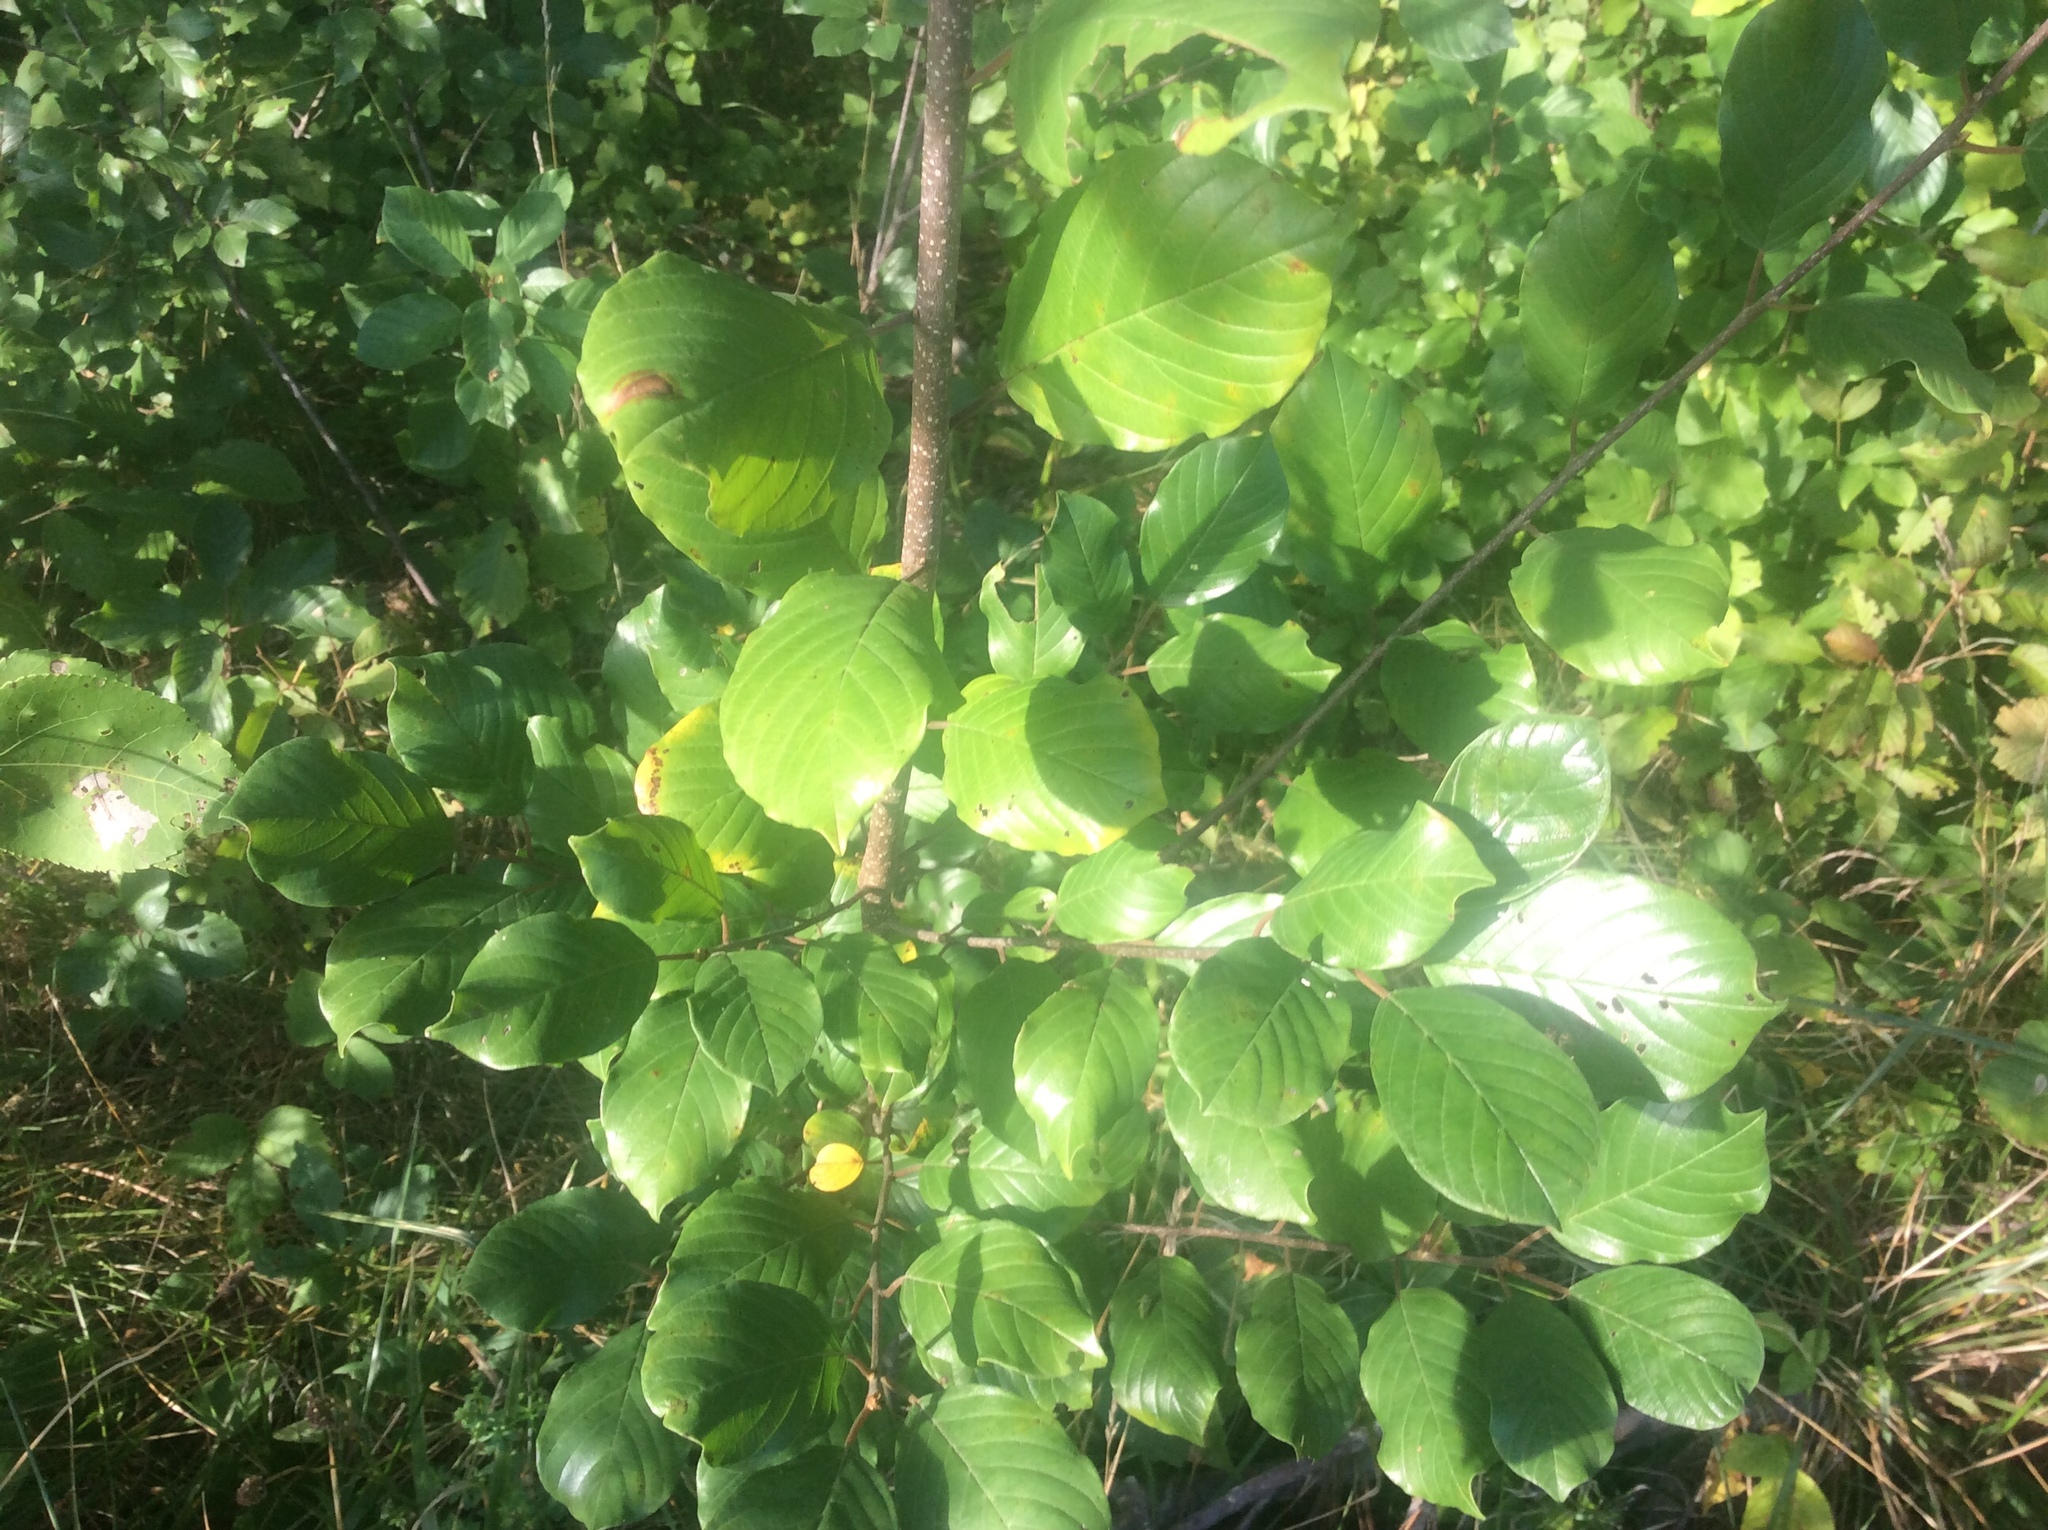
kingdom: Plantae
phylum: Tracheophyta
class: Magnoliopsida
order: Rosales
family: Rhamnaceae
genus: Frangula
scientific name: Frangula alnus
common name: Alder buckthorn
